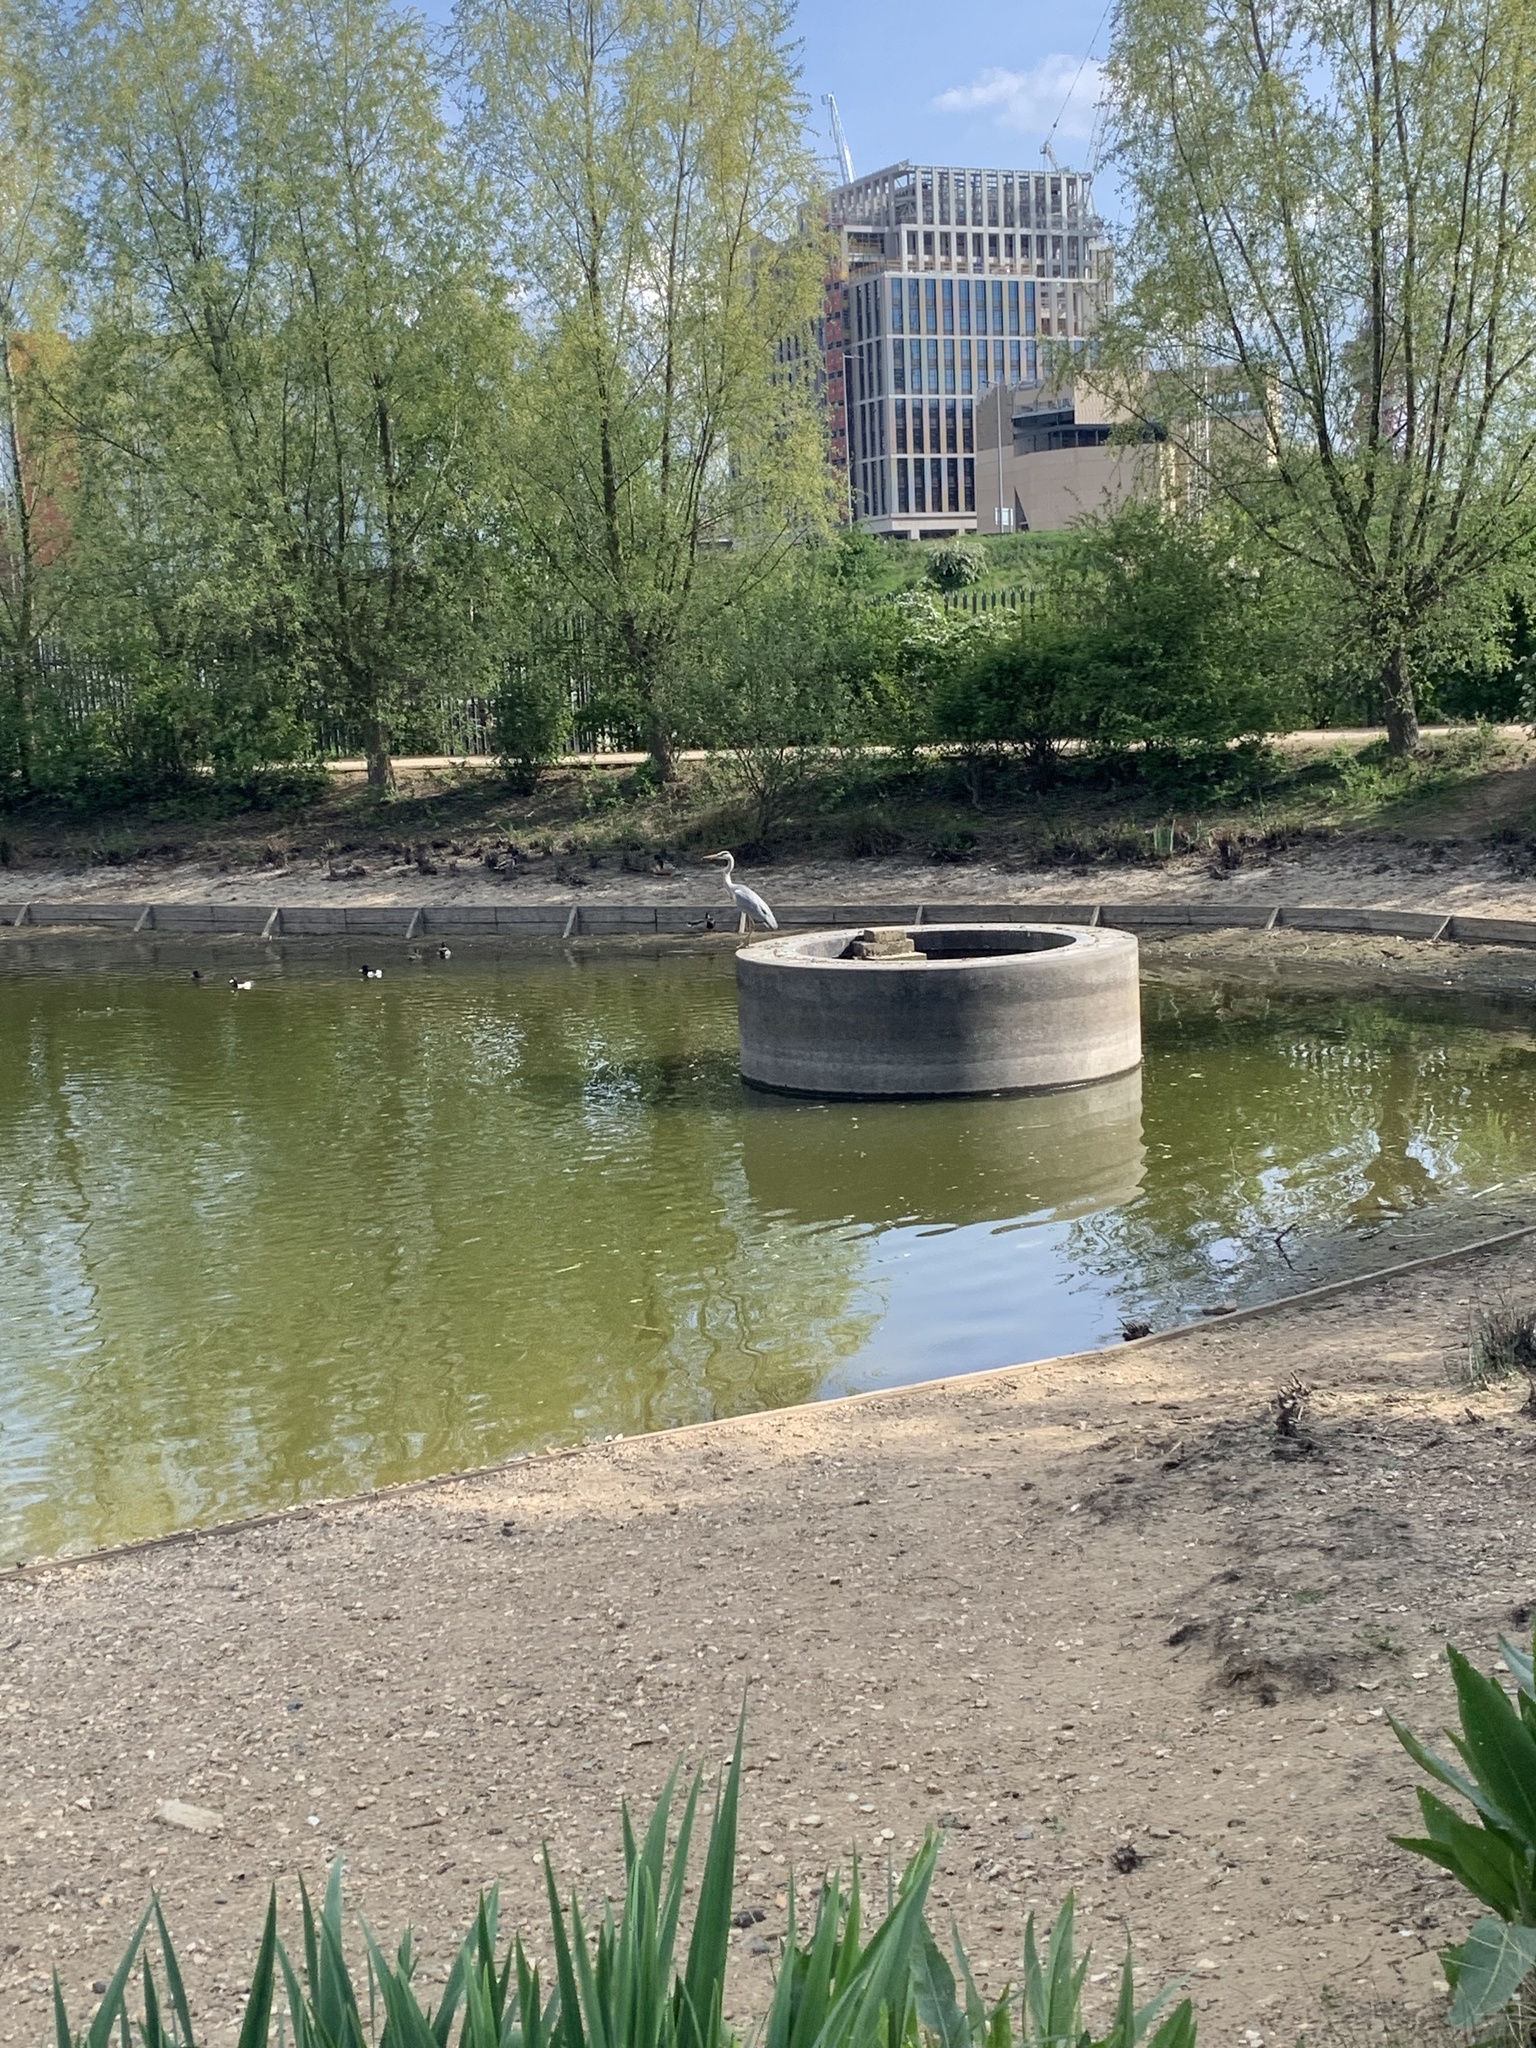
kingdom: Animalia
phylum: Chordata
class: Aves
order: Pelecaniformes
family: Ardeidae
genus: Ardea
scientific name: Ardea cinerea
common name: Grey heron
